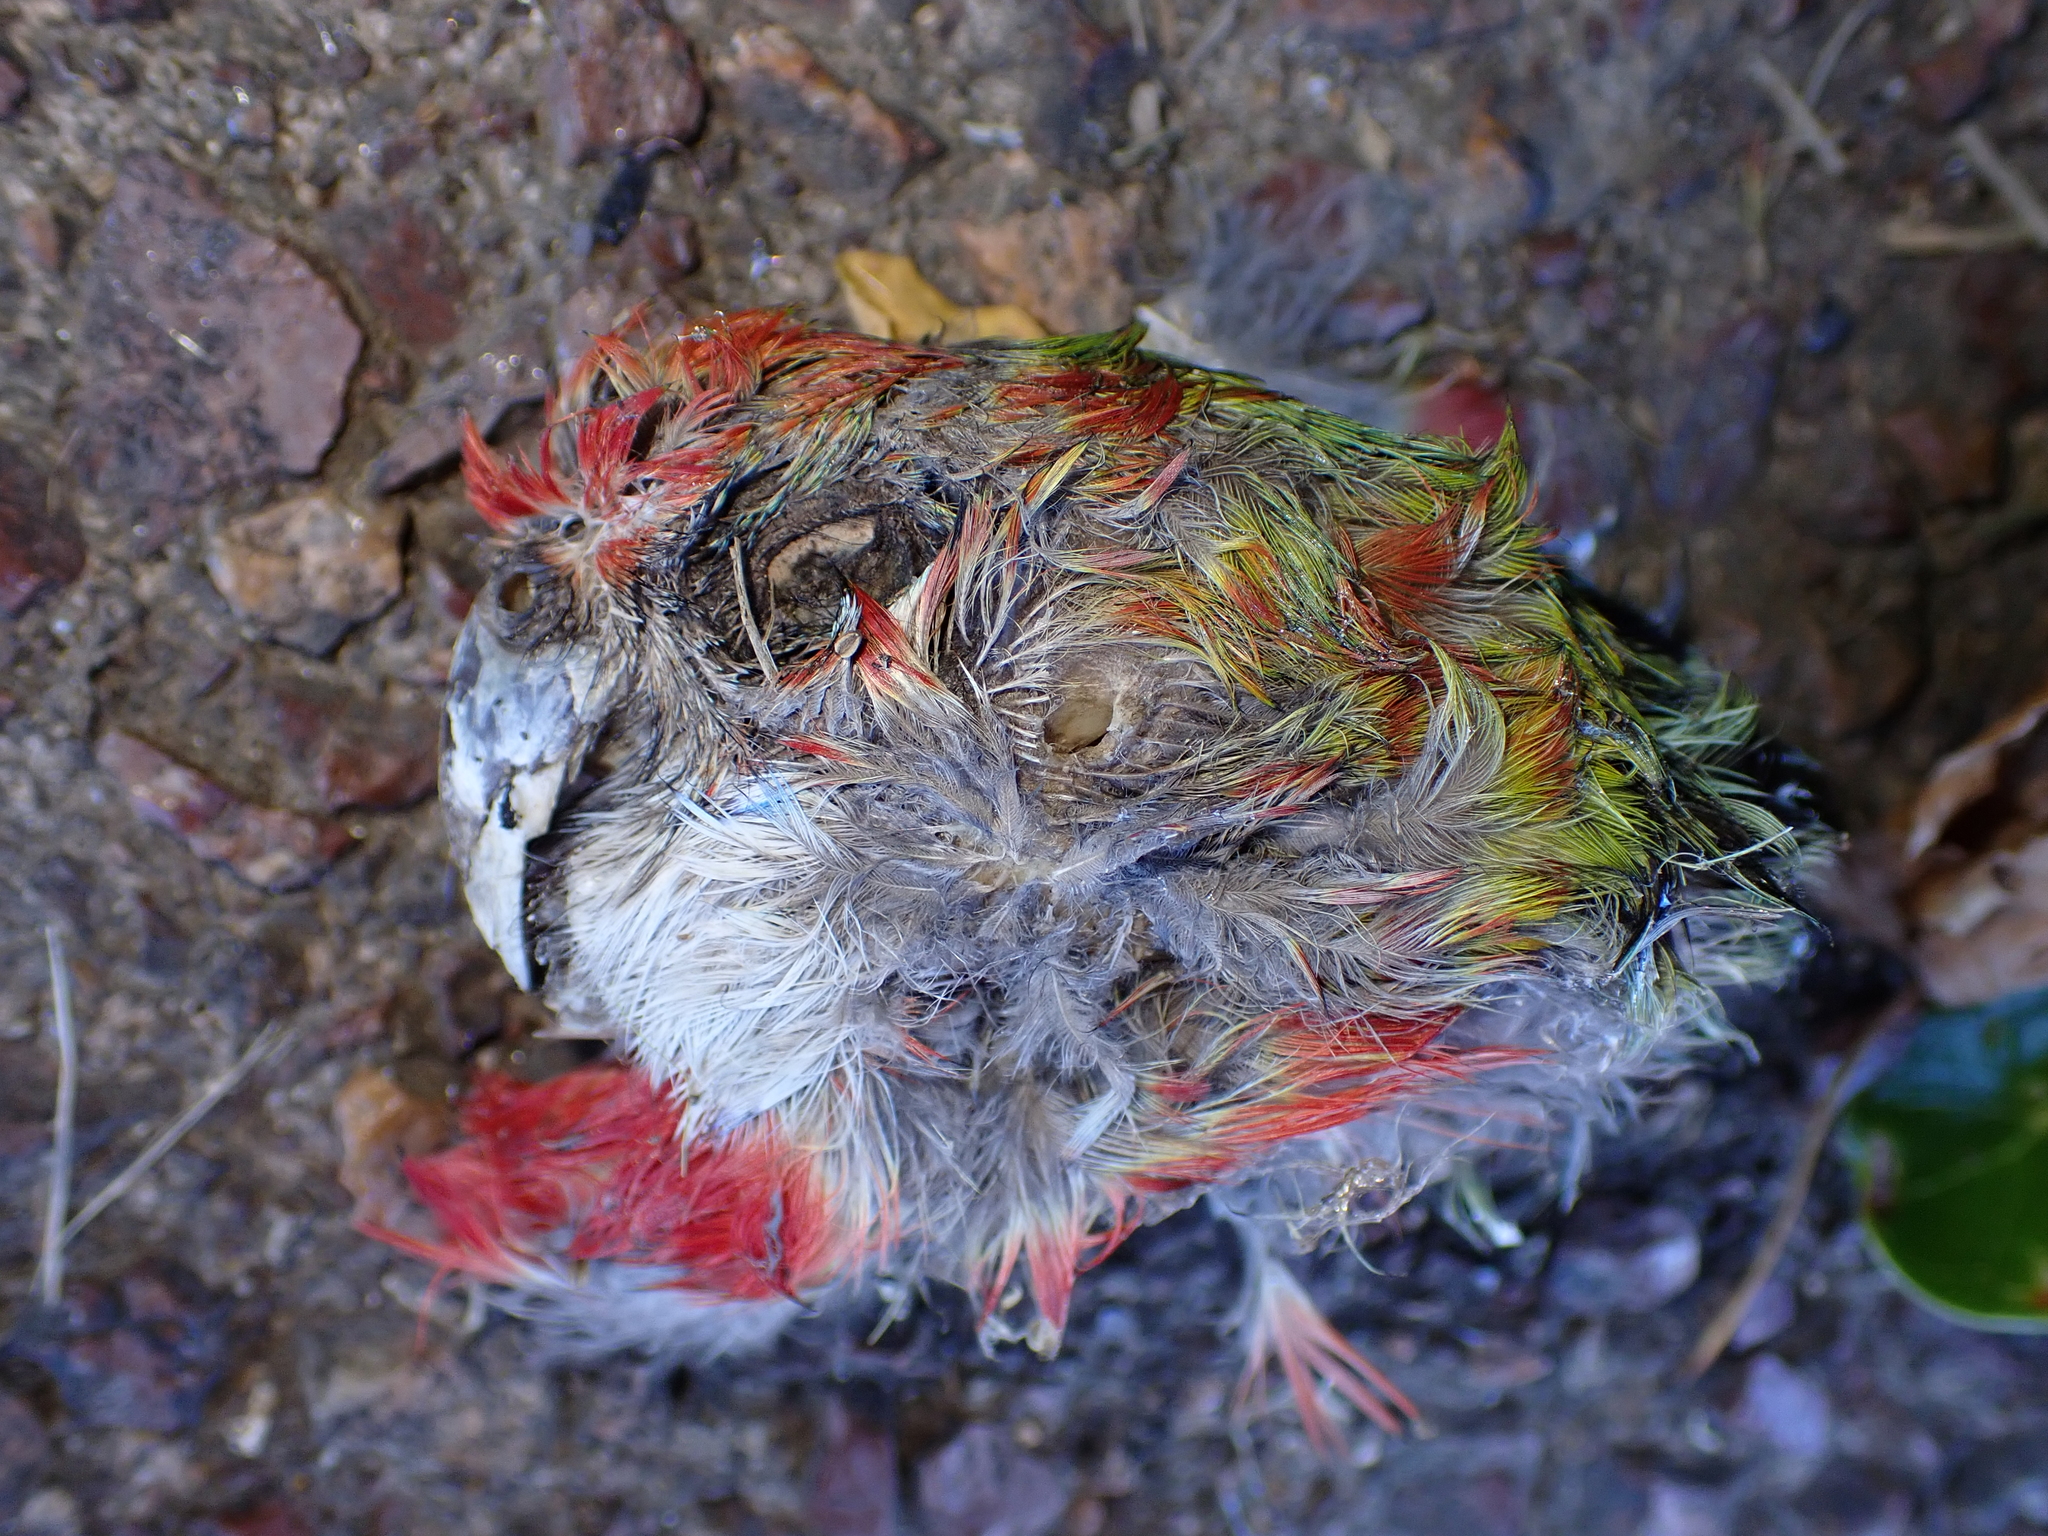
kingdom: Animalia
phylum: Chordata
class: Aves
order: Psittaciformes
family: Psittacidae
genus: Platycercus
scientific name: Platycercus eximius
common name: Eastern rosella
